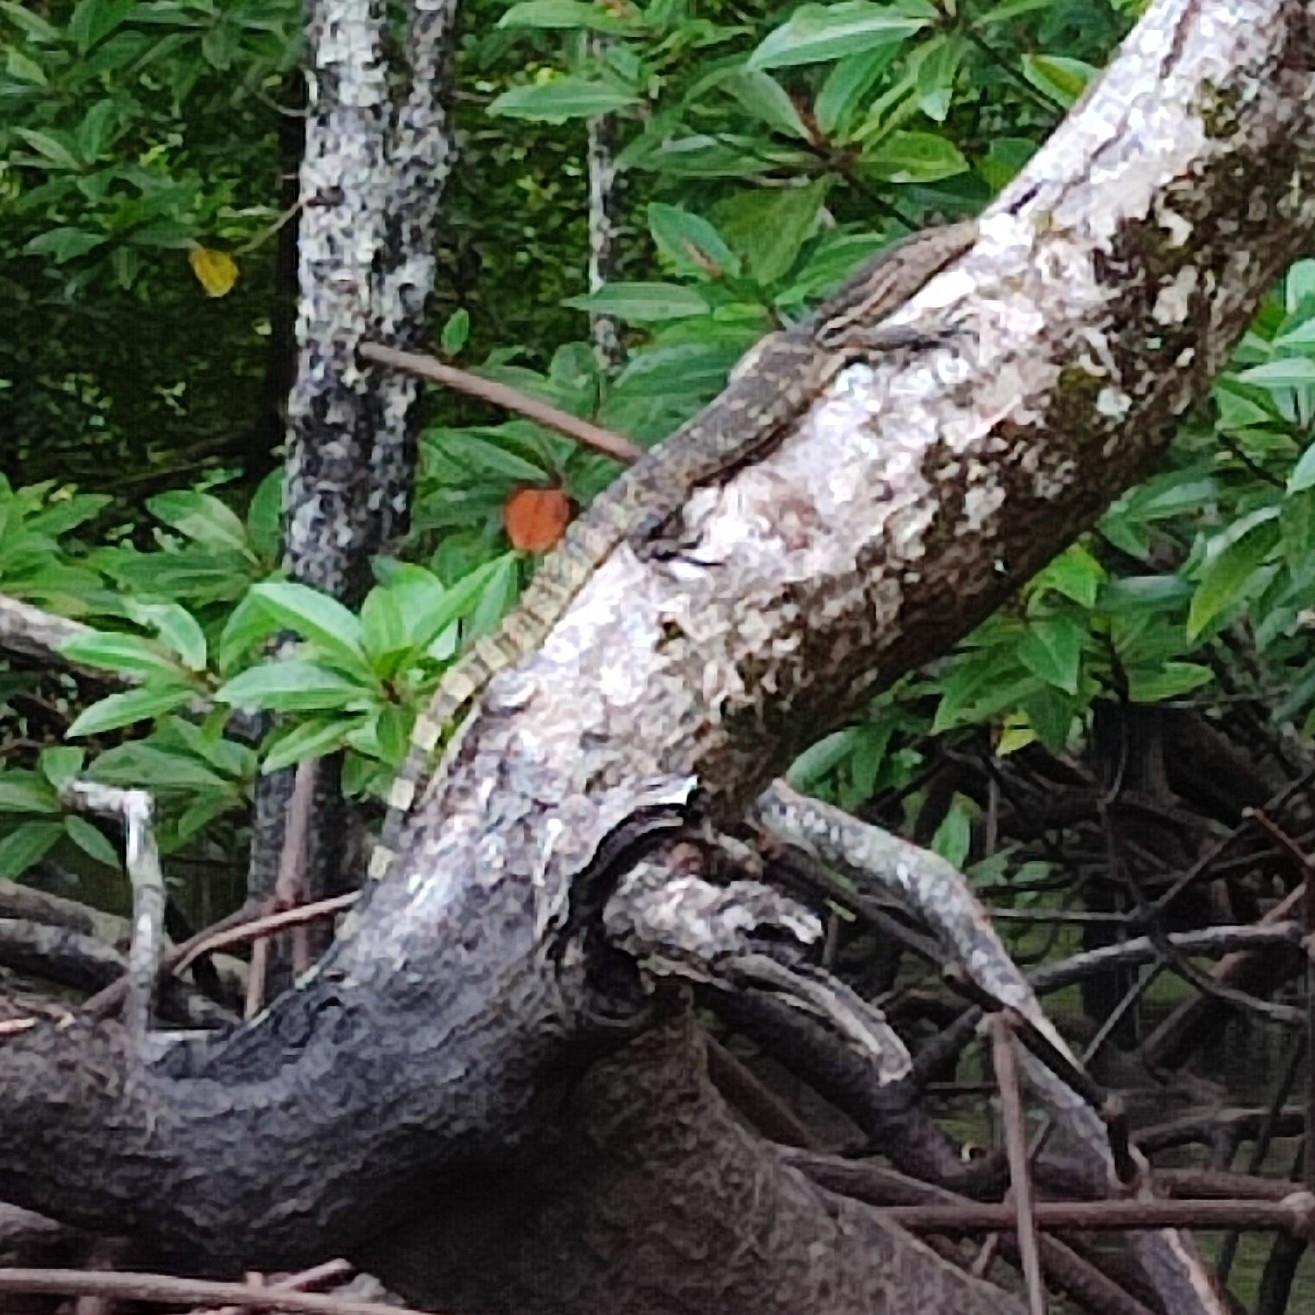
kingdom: Animalia
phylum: Chordata
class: Squamata
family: Varanidae
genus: Varanus
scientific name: Varanus salvator
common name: Common water monitor
